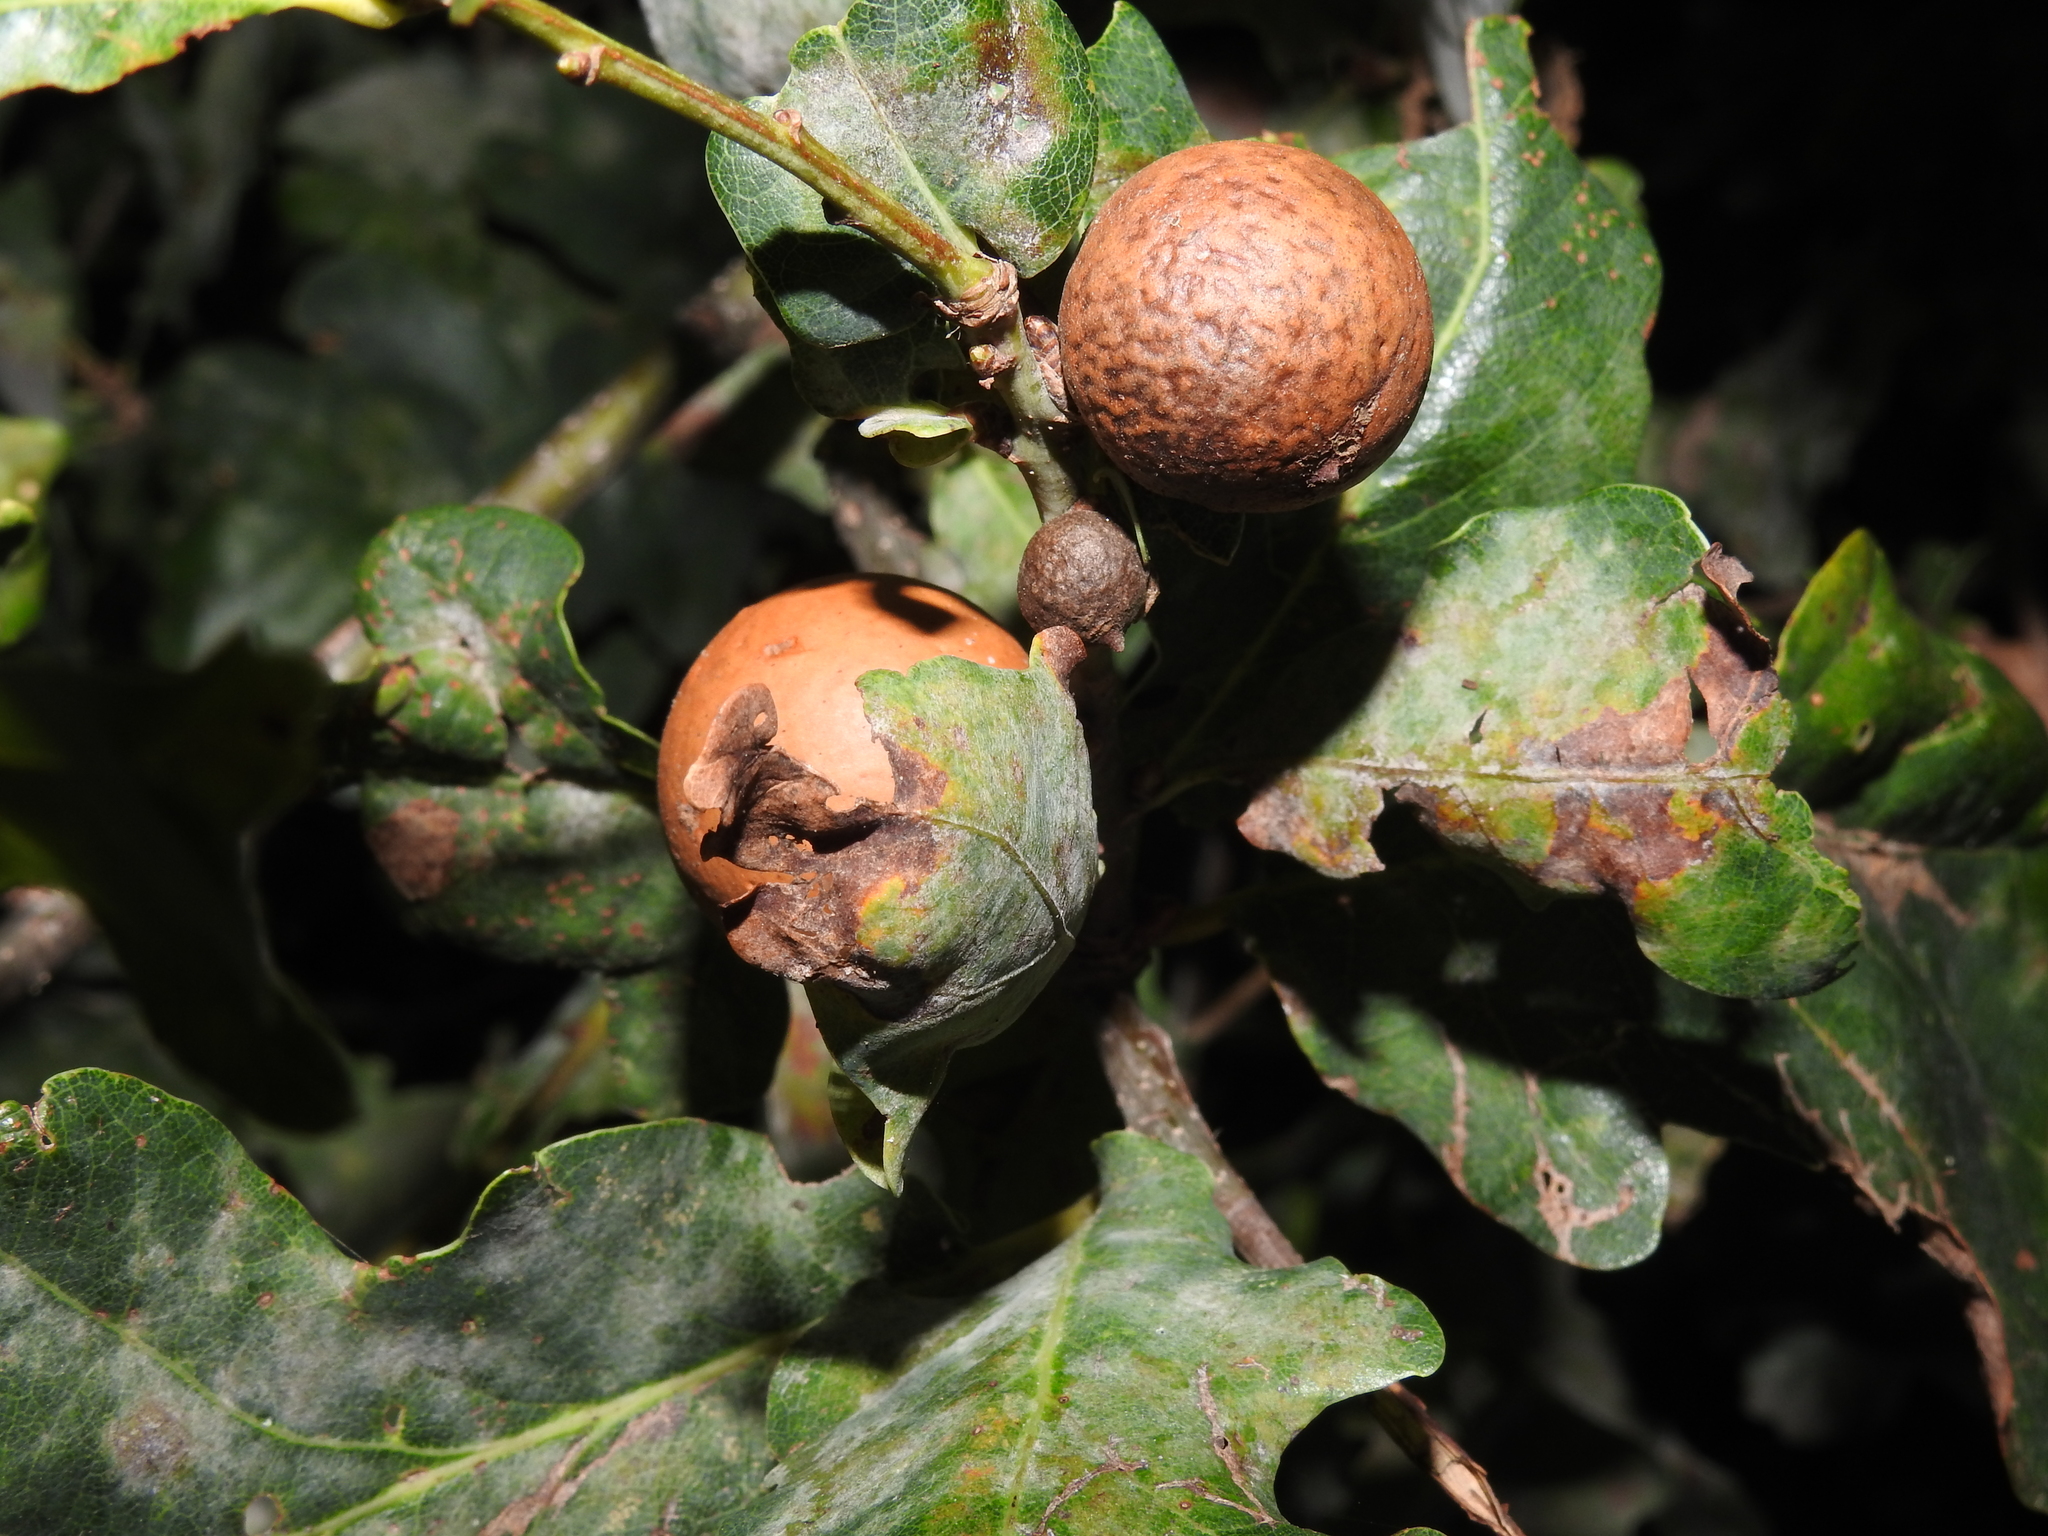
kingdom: Animalia
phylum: Arthropoda
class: Insecta
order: Hymenoptera
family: Cynipidae
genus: Andricus
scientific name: Andricus kollari
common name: Marble gall
